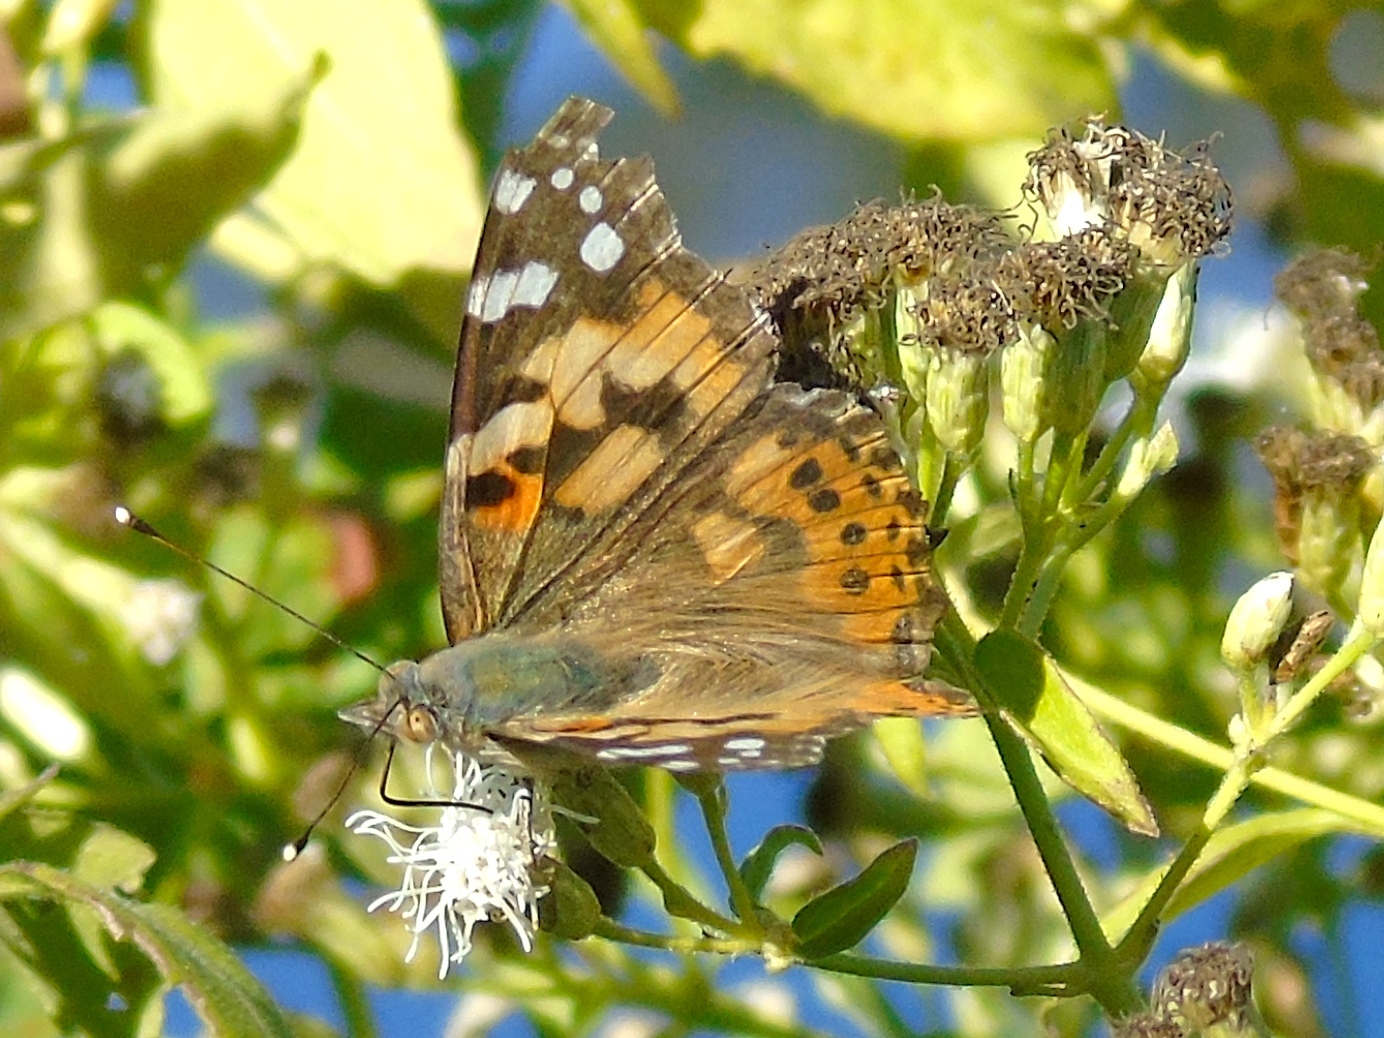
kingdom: Animalia
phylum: Arthropoda
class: Insecta
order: Lepidoptera
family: Nymphalidae
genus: Vanessa
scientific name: Vanessa cardui
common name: Painted lady
